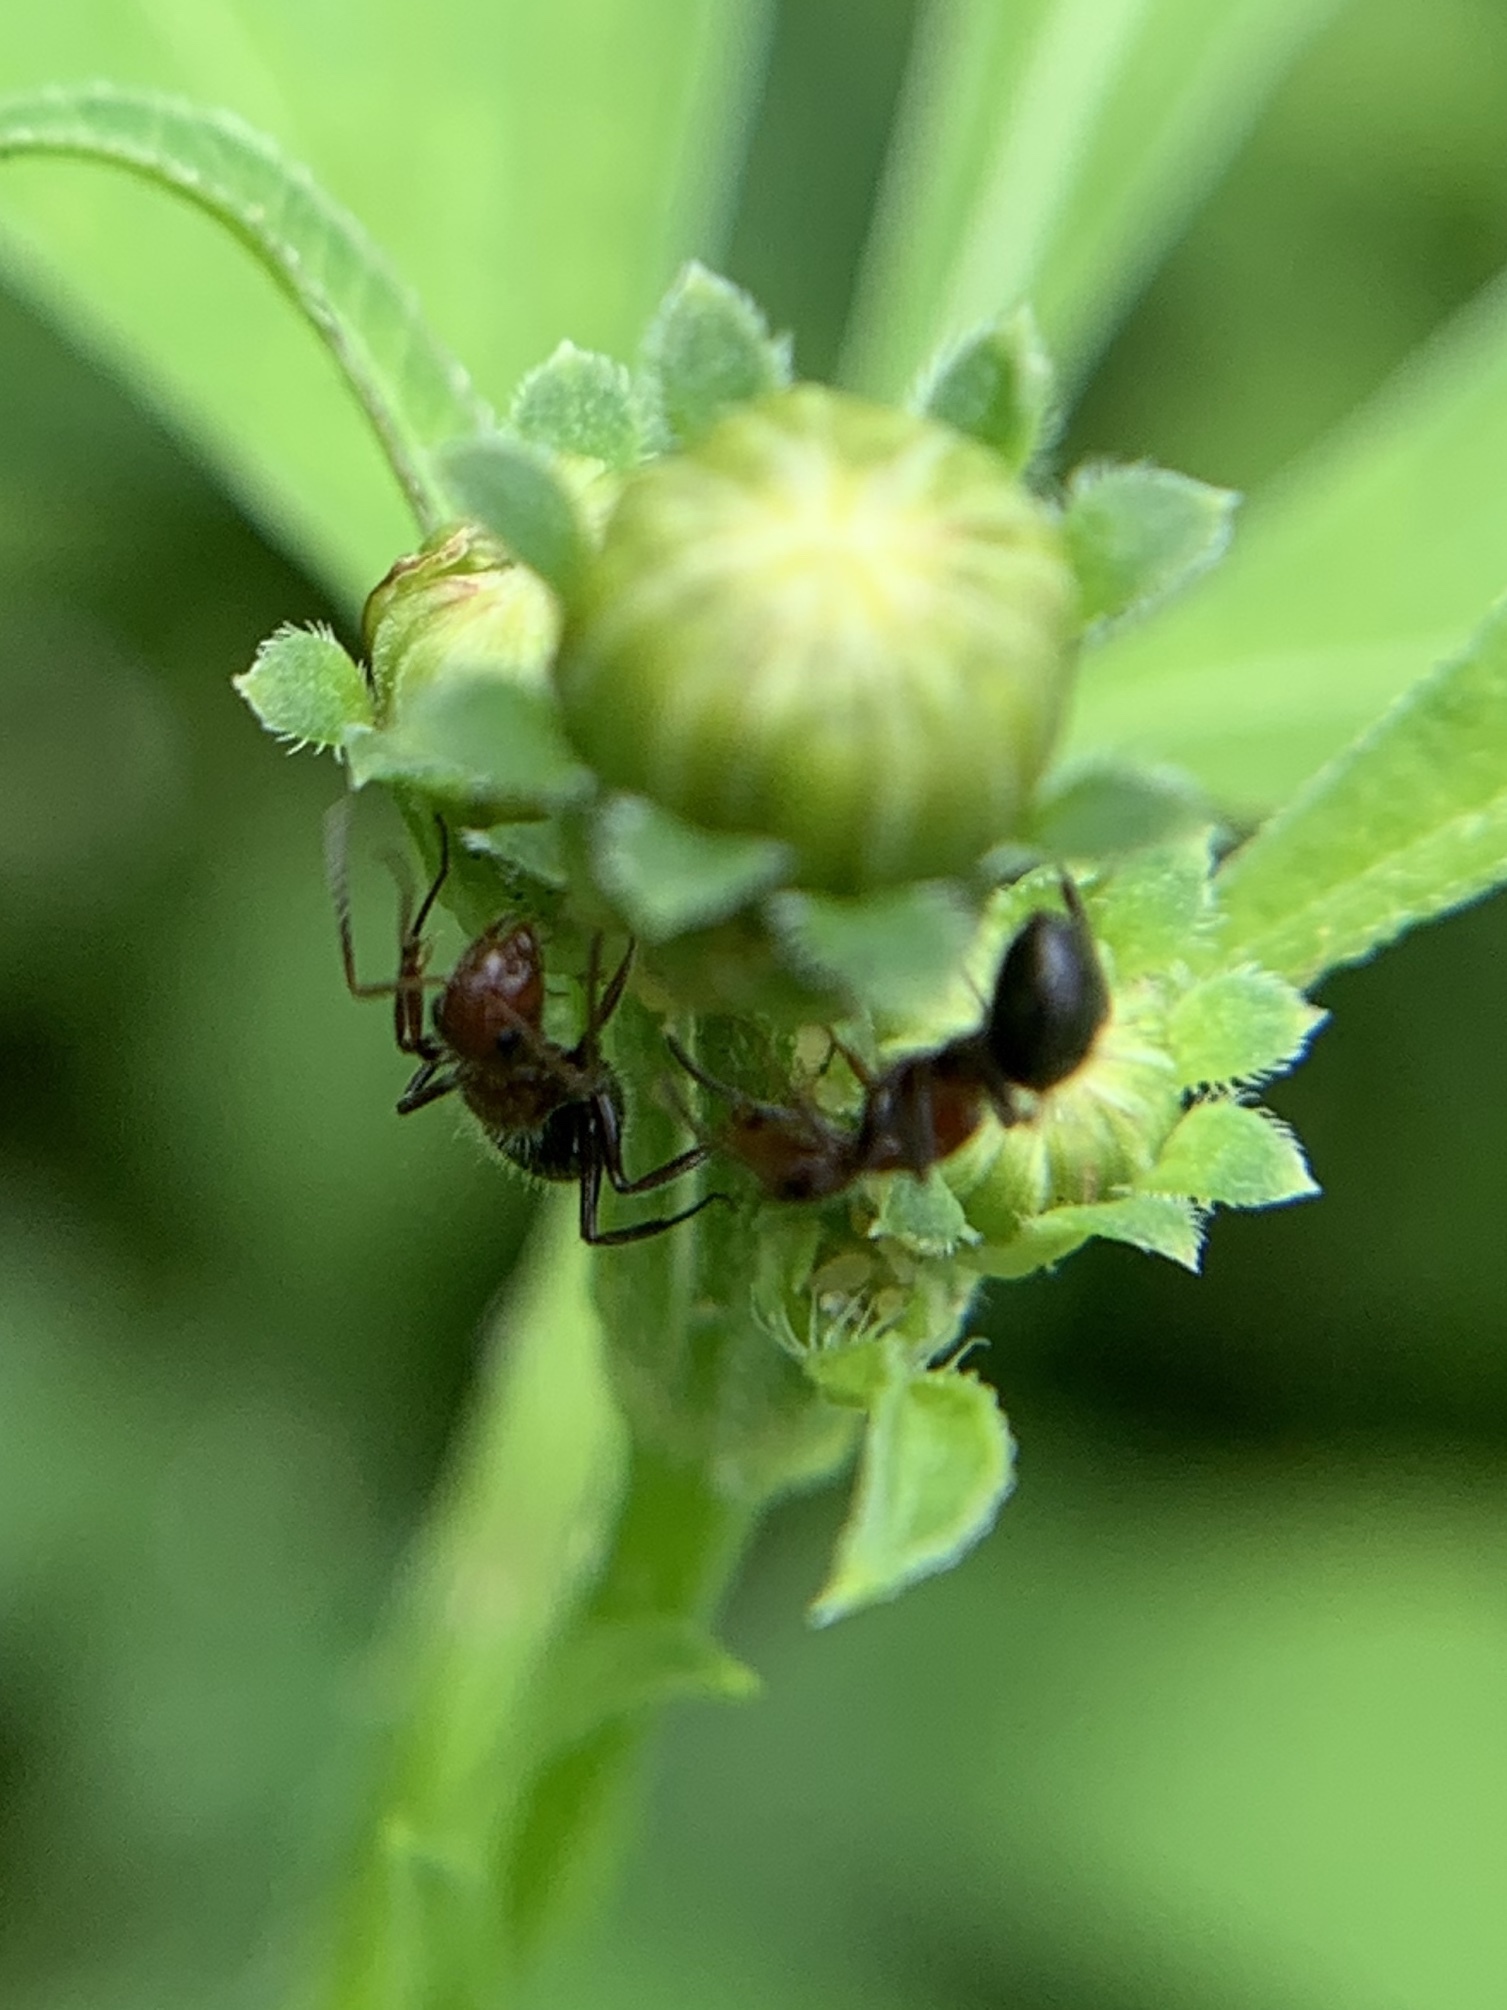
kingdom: Animalia
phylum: Arthropoda
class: Insecta
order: Hymenoptera
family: Formicidae
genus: Camponotus
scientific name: Camponotus planatus
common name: Compact carpenter ant
